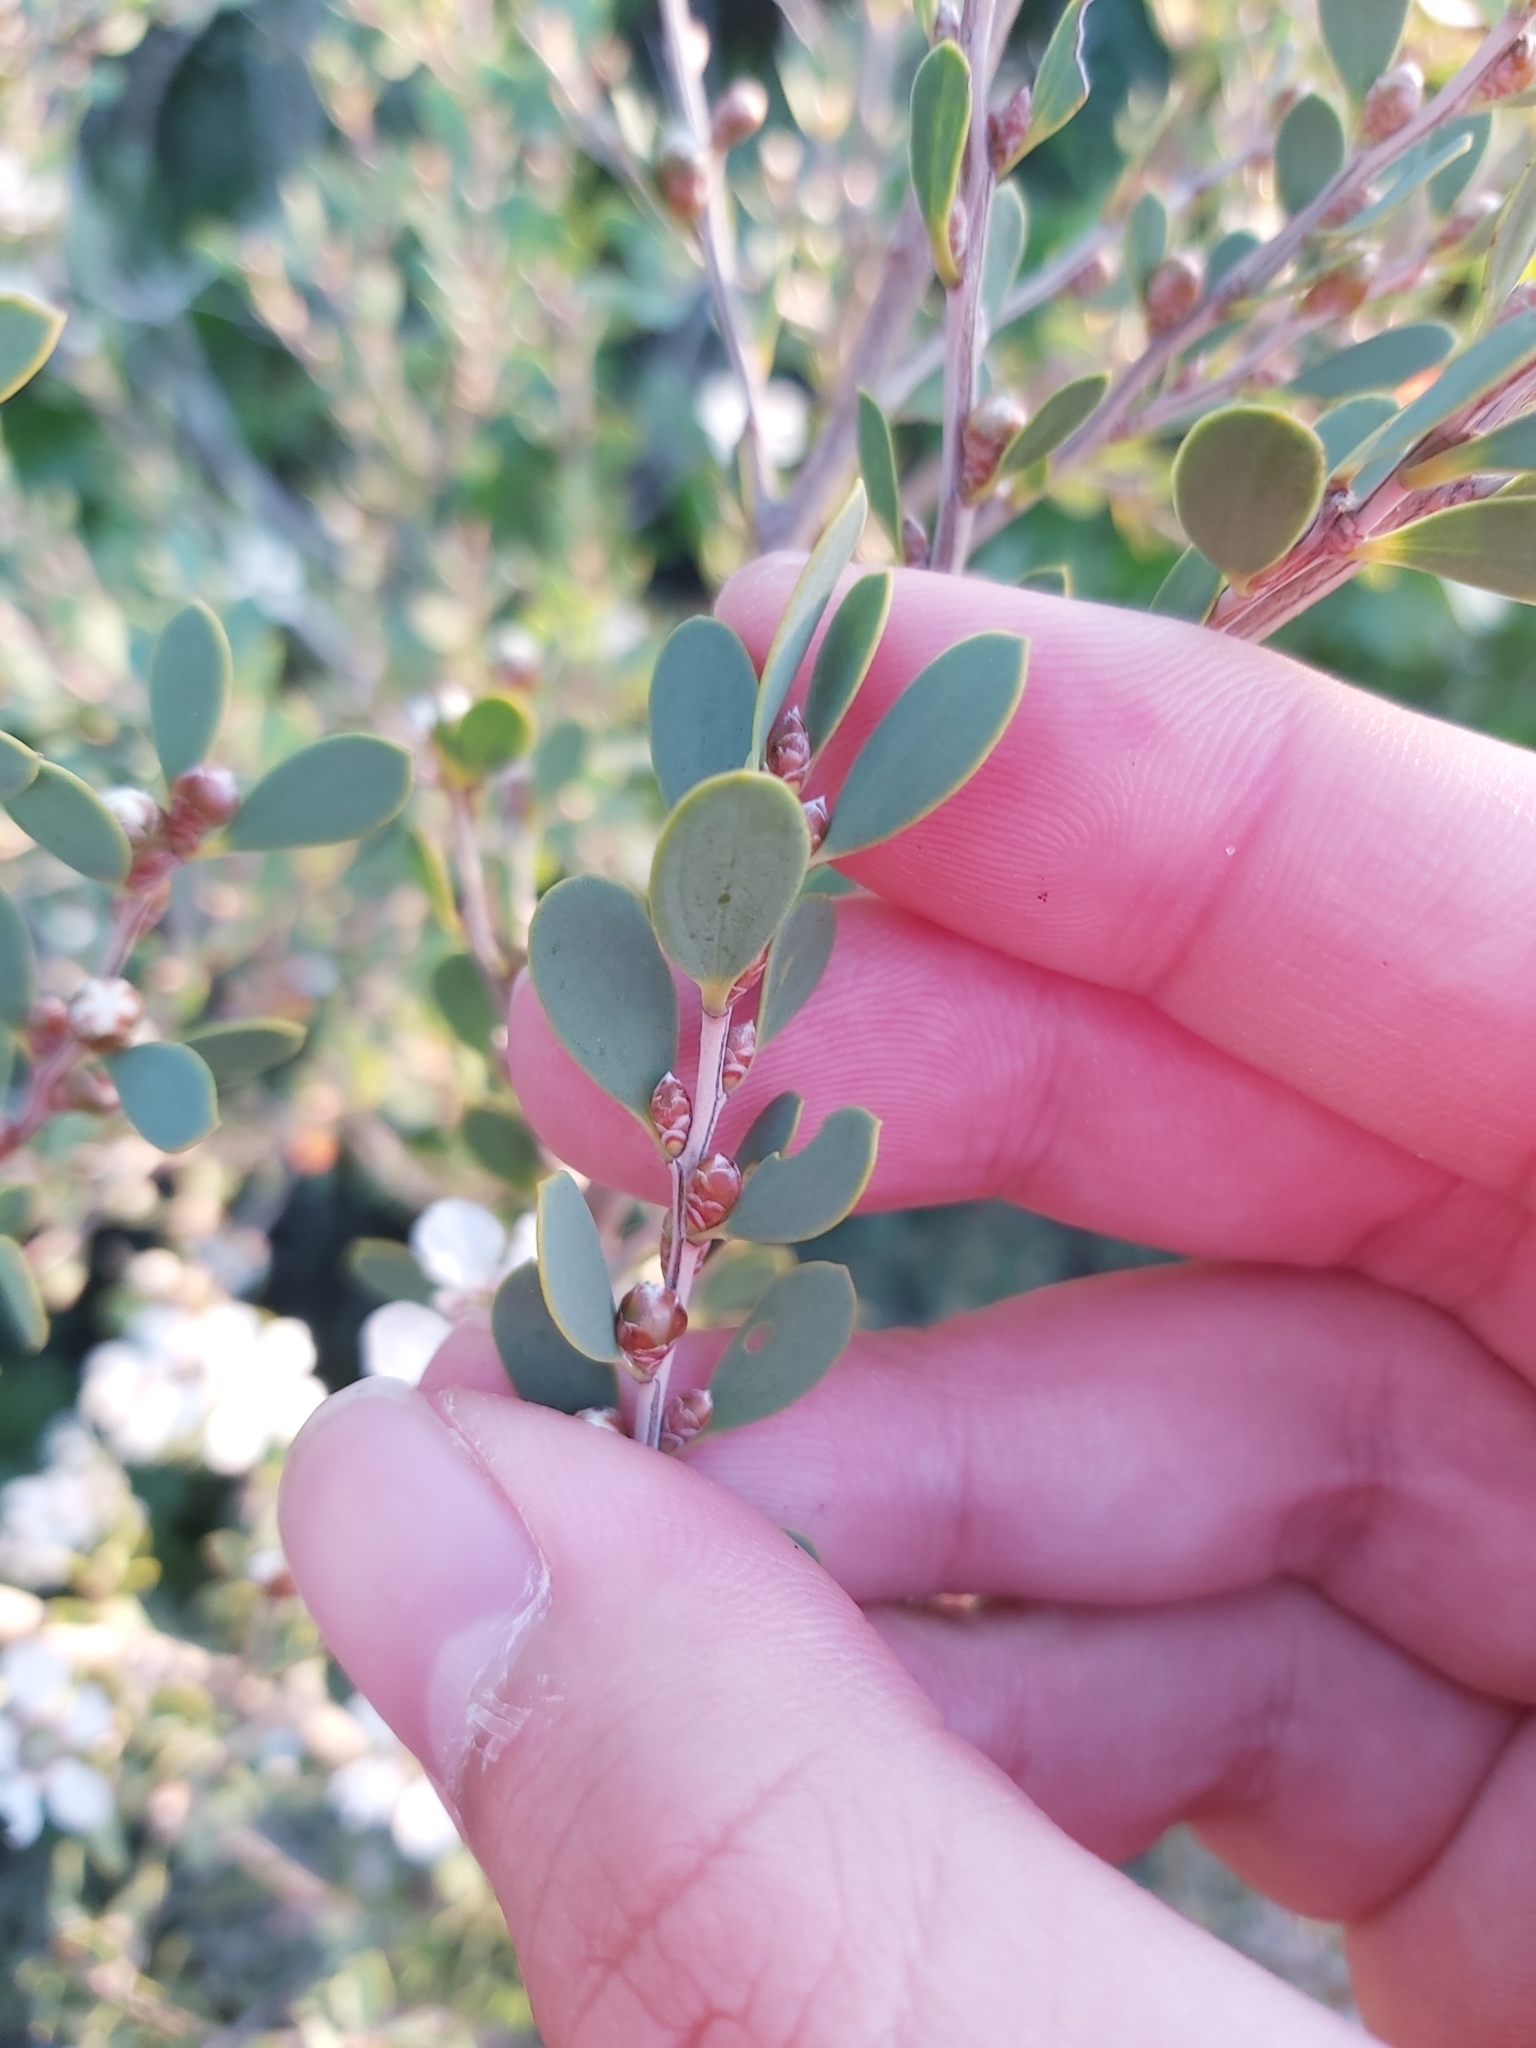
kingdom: Plantae
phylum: Tracheophyta
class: Magnoliopsida
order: Myrtales
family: Myrtaceae
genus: Leptospermum
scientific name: Leptospermum laevigatum
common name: Australian teatree
